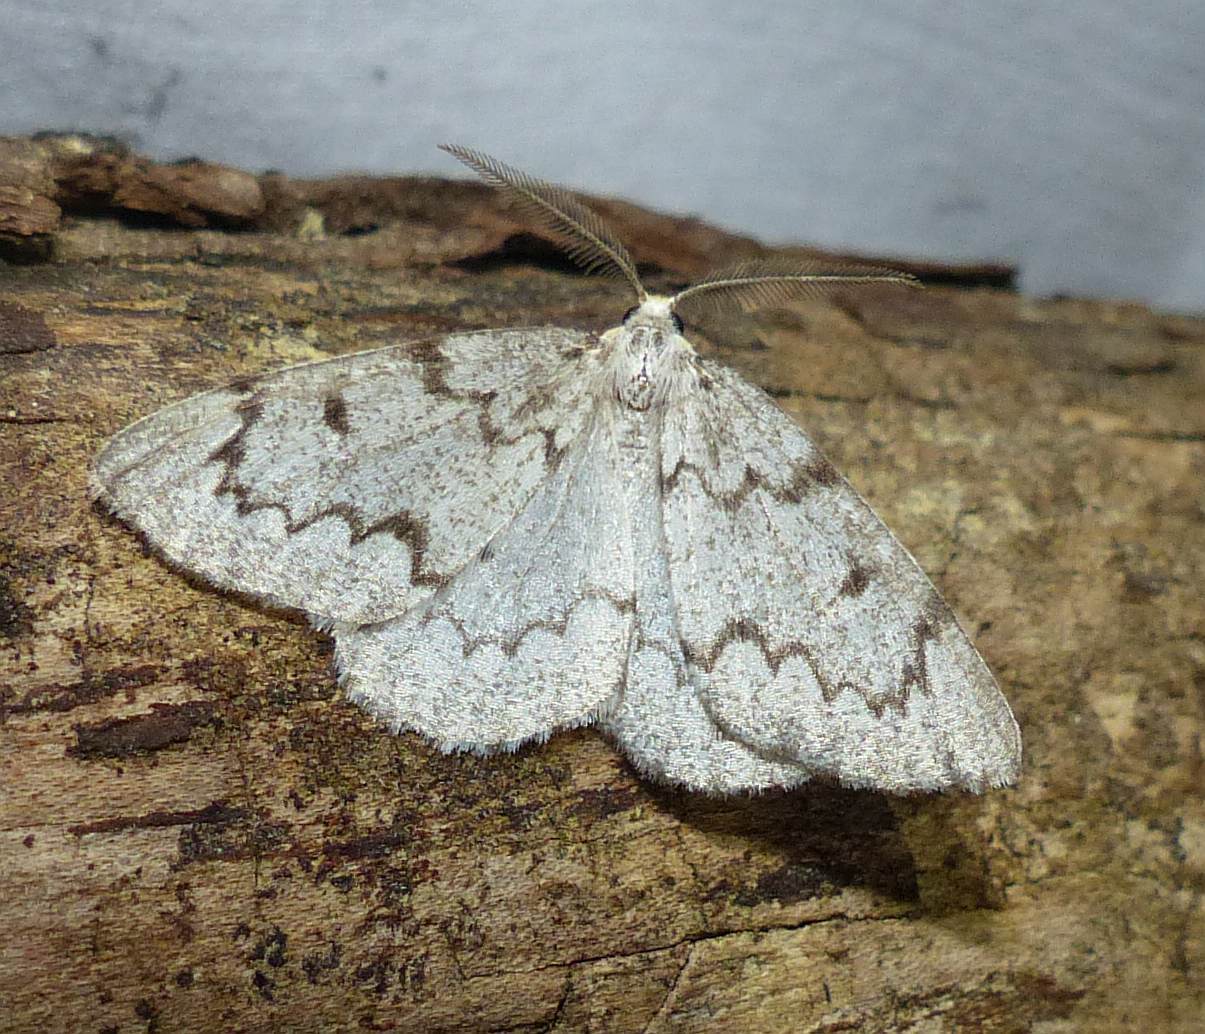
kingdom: Animalia
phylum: Arthropoda
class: Insecta
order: Lepidoptera
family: Geometridae
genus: Nepytia
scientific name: Nepytia canosaria
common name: False hemlock looper
